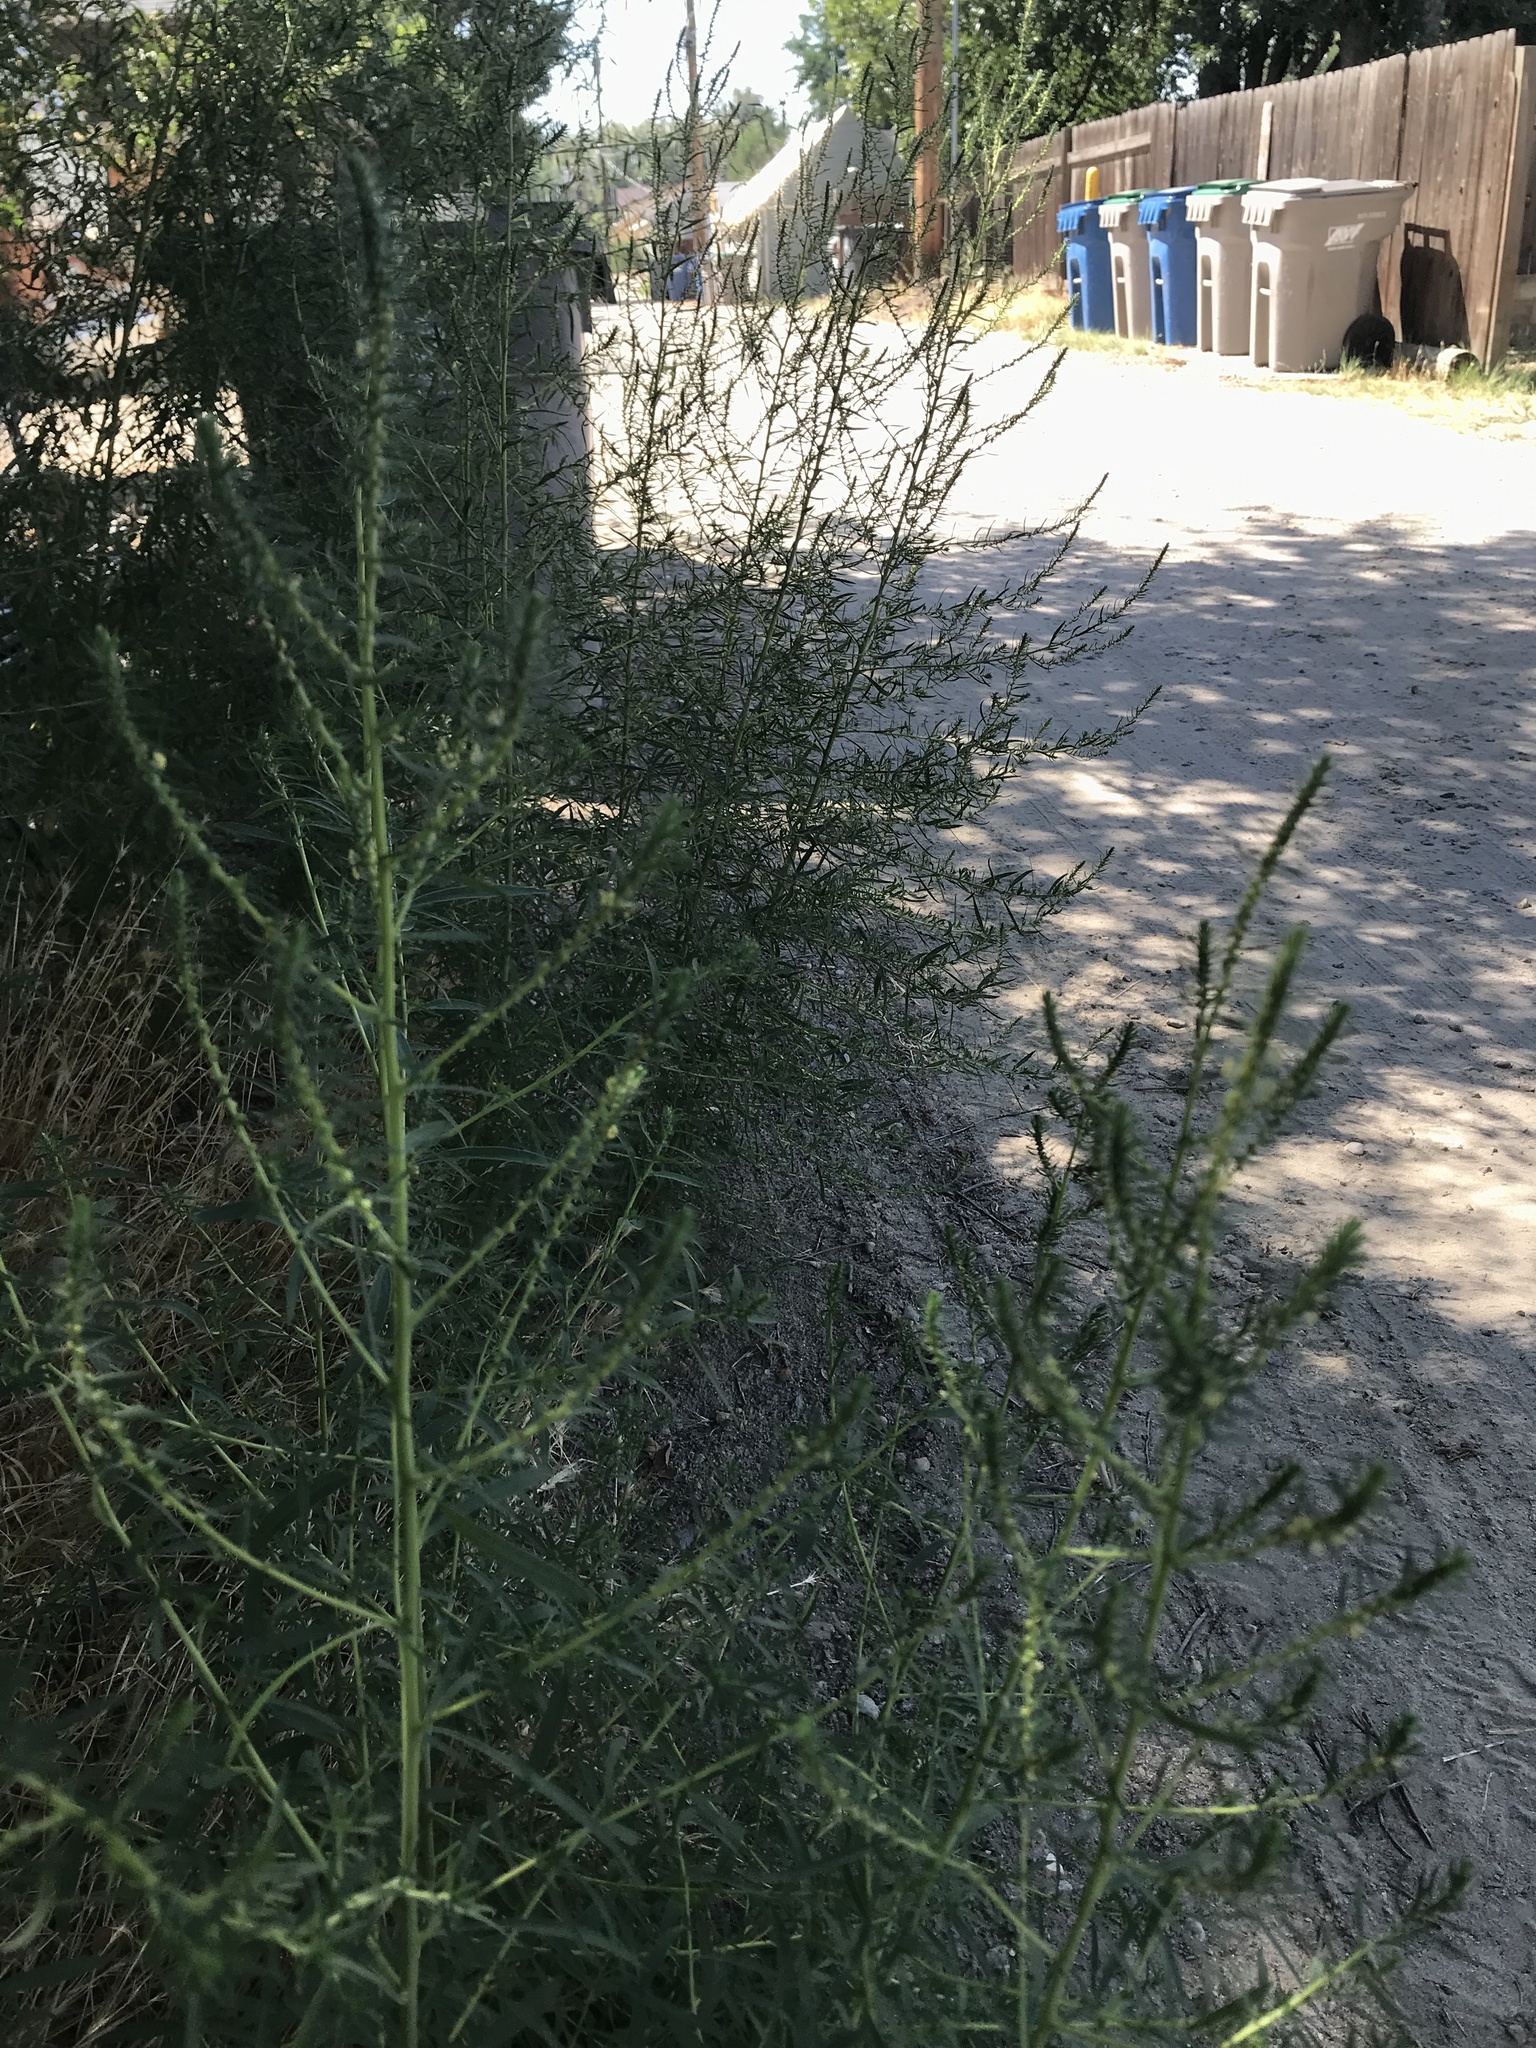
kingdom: Plantae
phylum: Tracheophyta
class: Magnoliopsida
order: Caryophyllales
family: Amaranthaceae
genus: Bassia
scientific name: Bassia scoparia
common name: Belvedere
